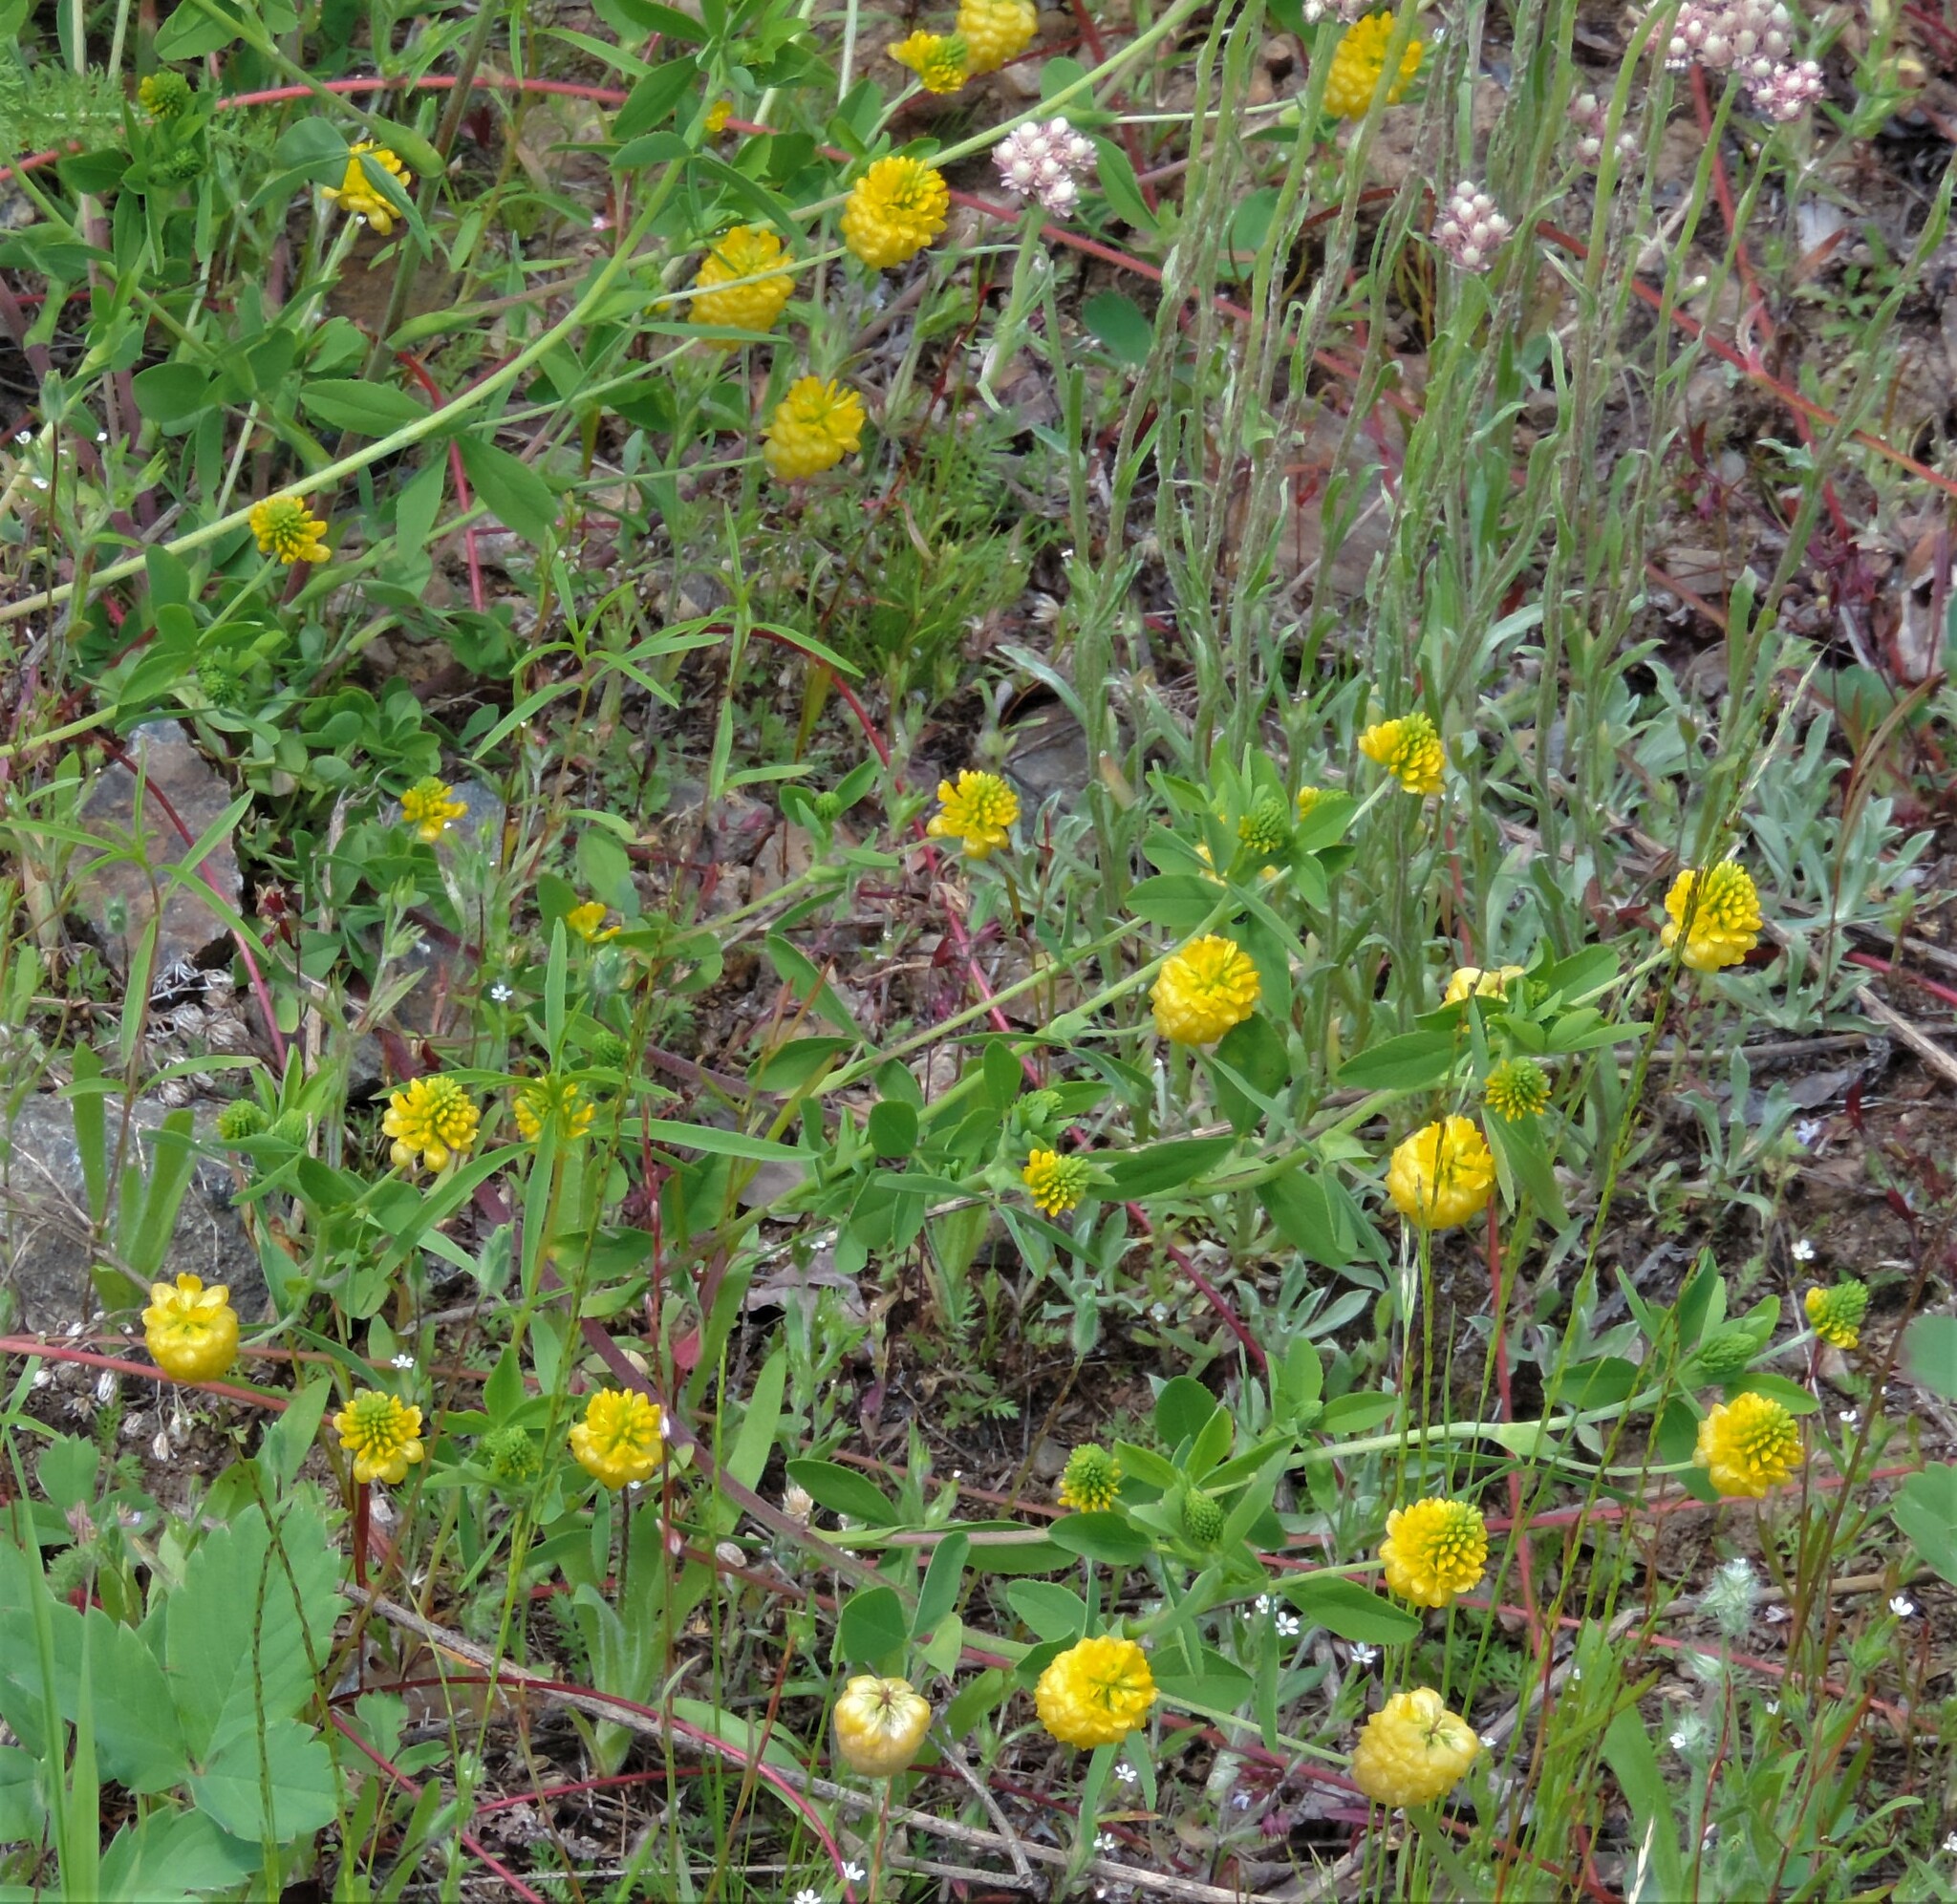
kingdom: Plantae
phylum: Tracheophyta
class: Magnoliopsida
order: Fabales
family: Fabaceae
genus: Trifolium
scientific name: Trifolium aureum
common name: Golden clover
